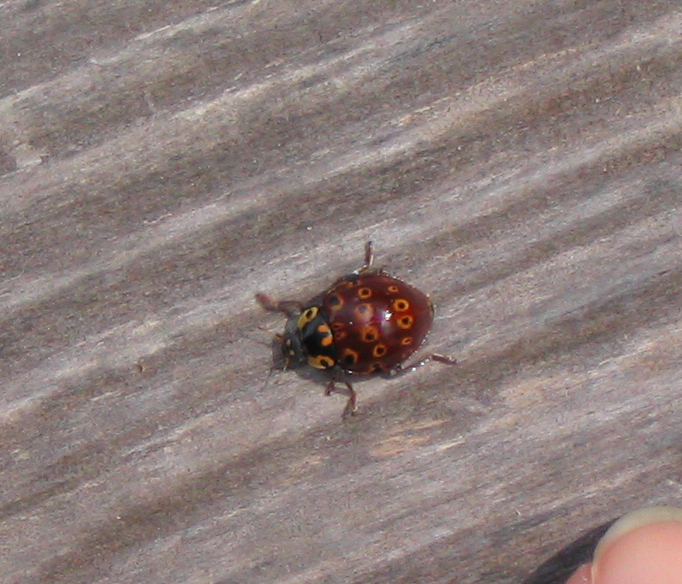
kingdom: Animalia
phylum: Arthropoda
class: Insecta
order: Coleoptera
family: Coccinellidae
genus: Anatis
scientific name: Anatis mali
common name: Eye-spotted lady beetle
